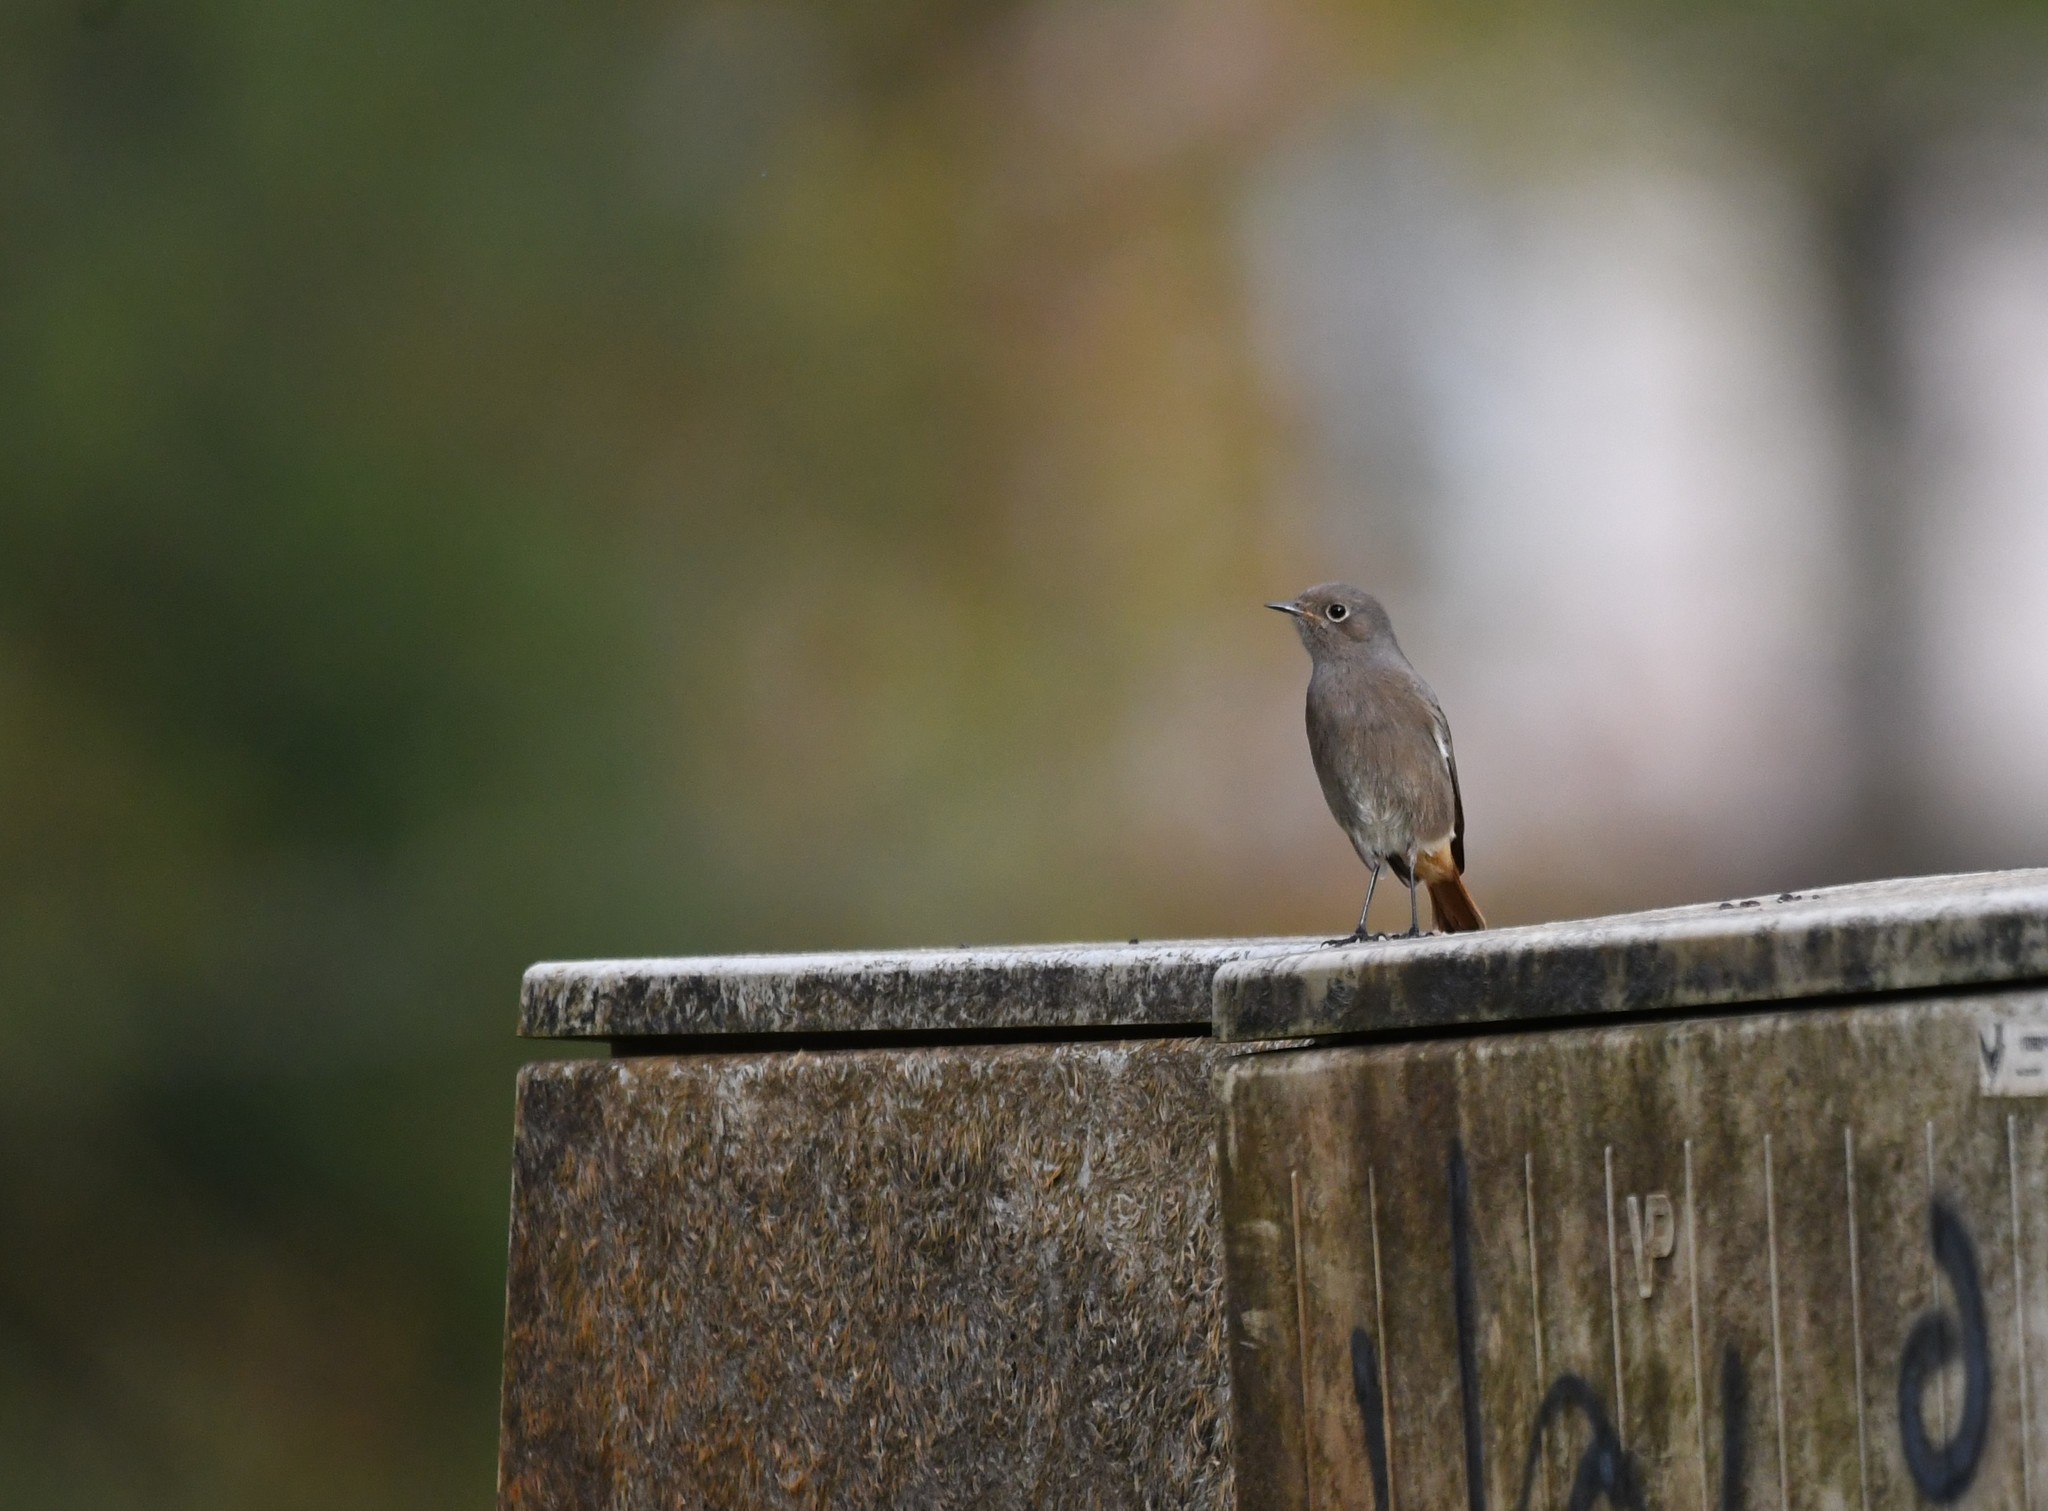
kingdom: Animalia
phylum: Chordata
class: Aves
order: Passeriformes
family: Muscicapidae
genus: Phoenicurus
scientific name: Phoenicurus ochruros
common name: Black redstart
